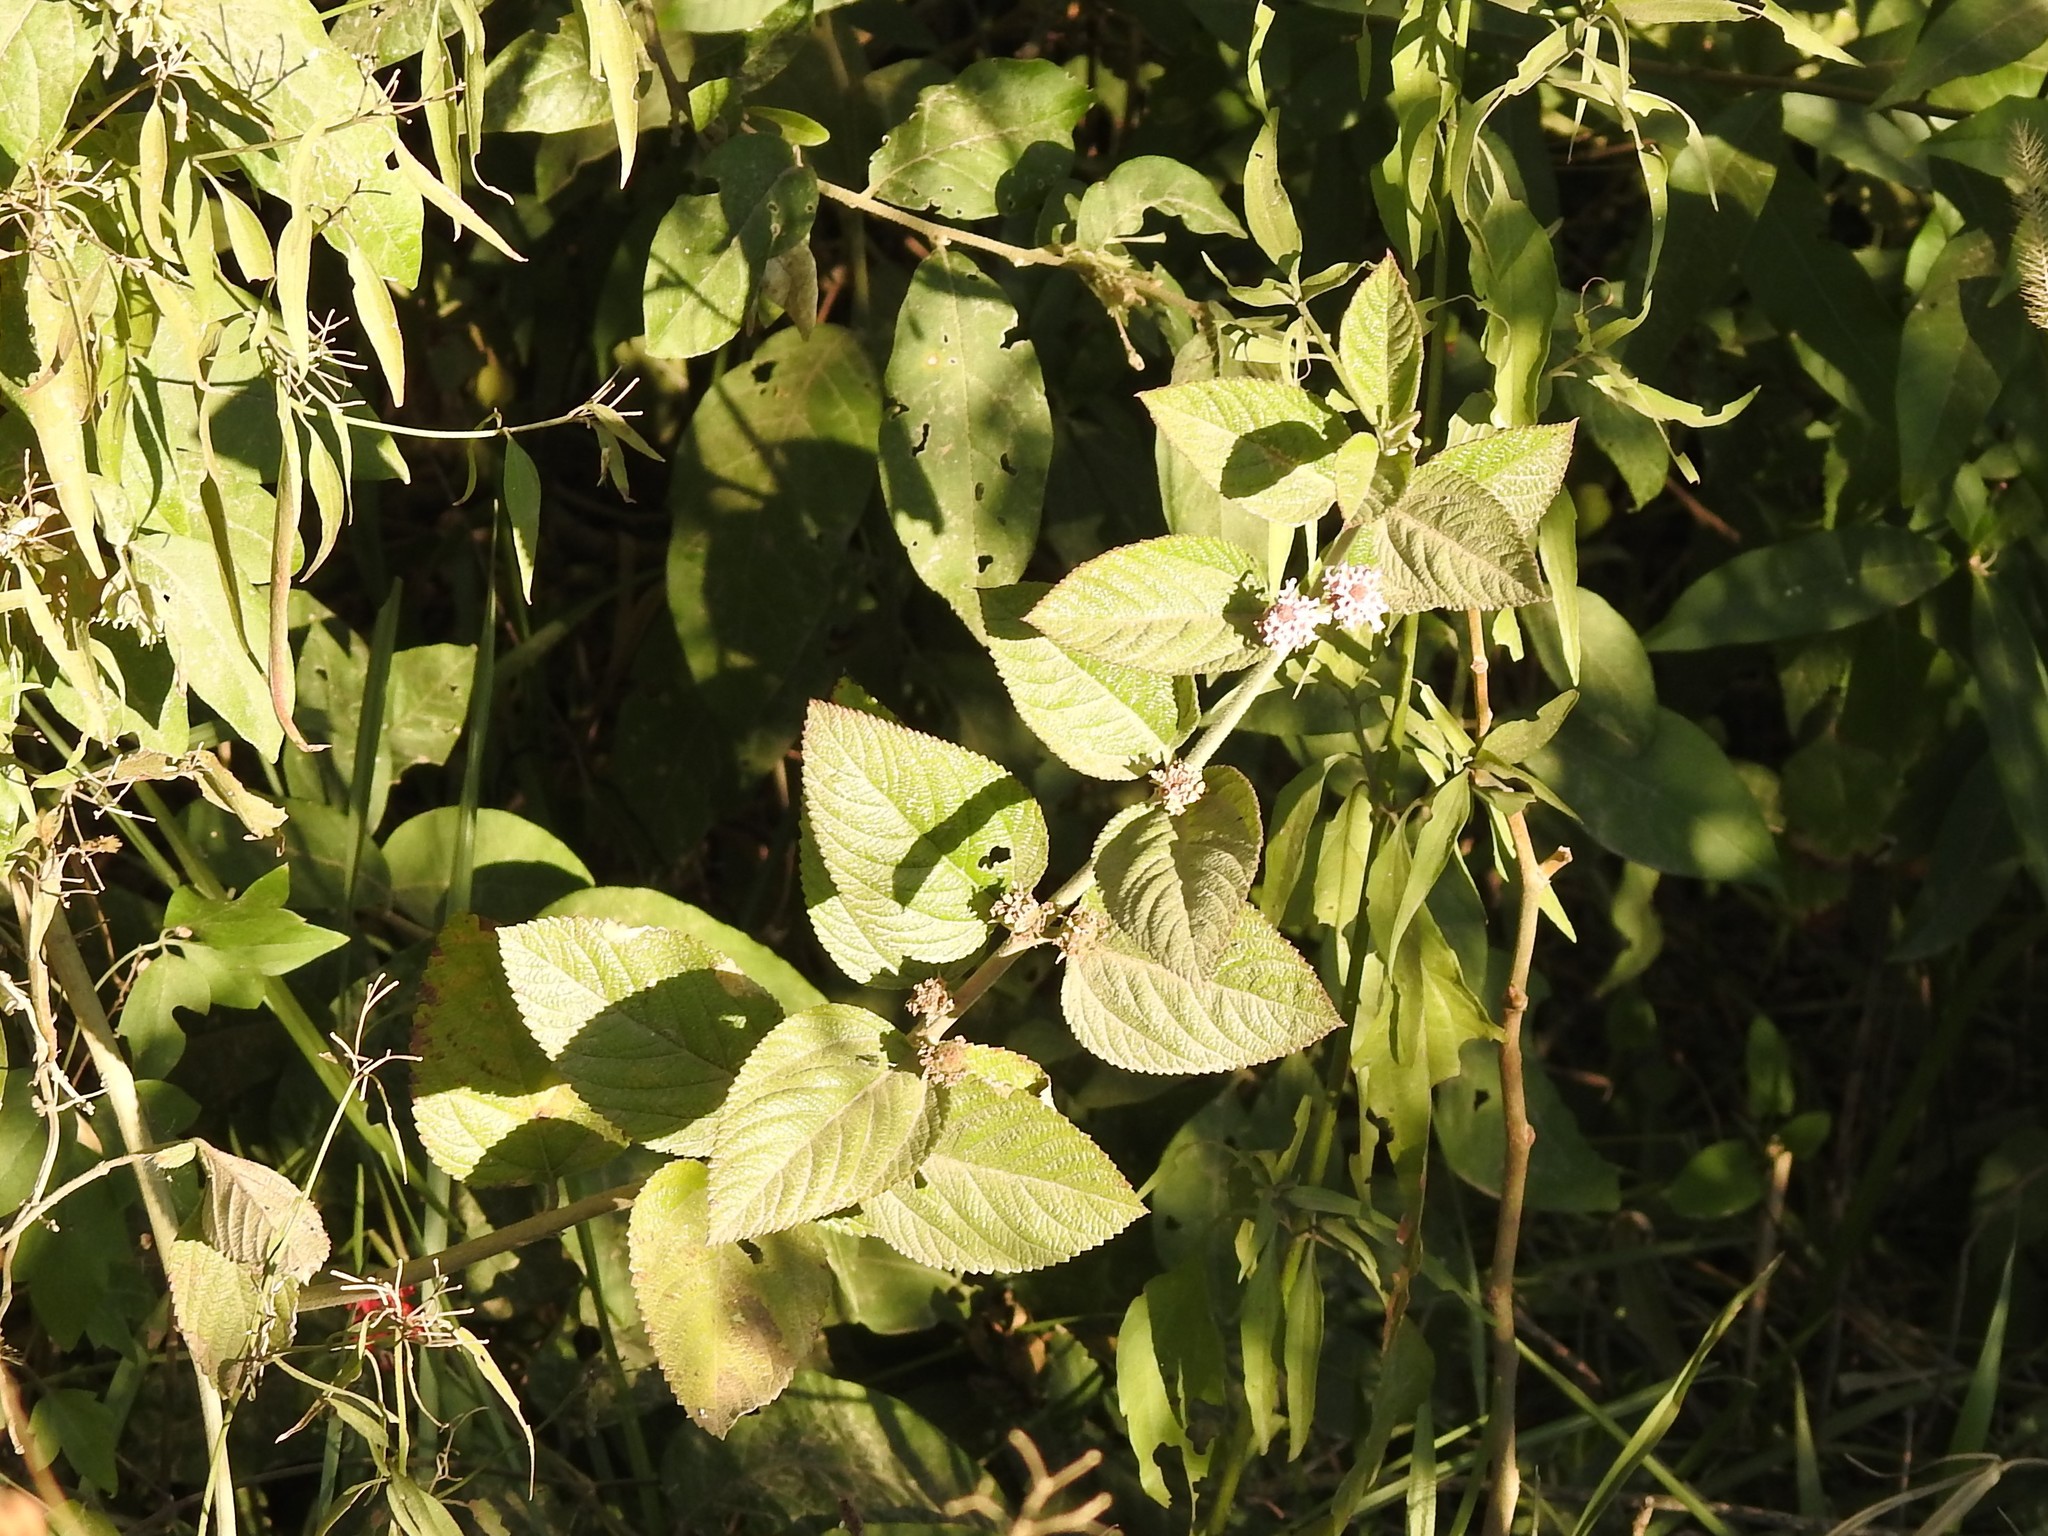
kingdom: Plantae
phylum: Tracheophyta
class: Magnoliopsida
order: Lamiales
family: Verbenaceae
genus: Lippia
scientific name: Lippia alba
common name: Bushy matgrass
